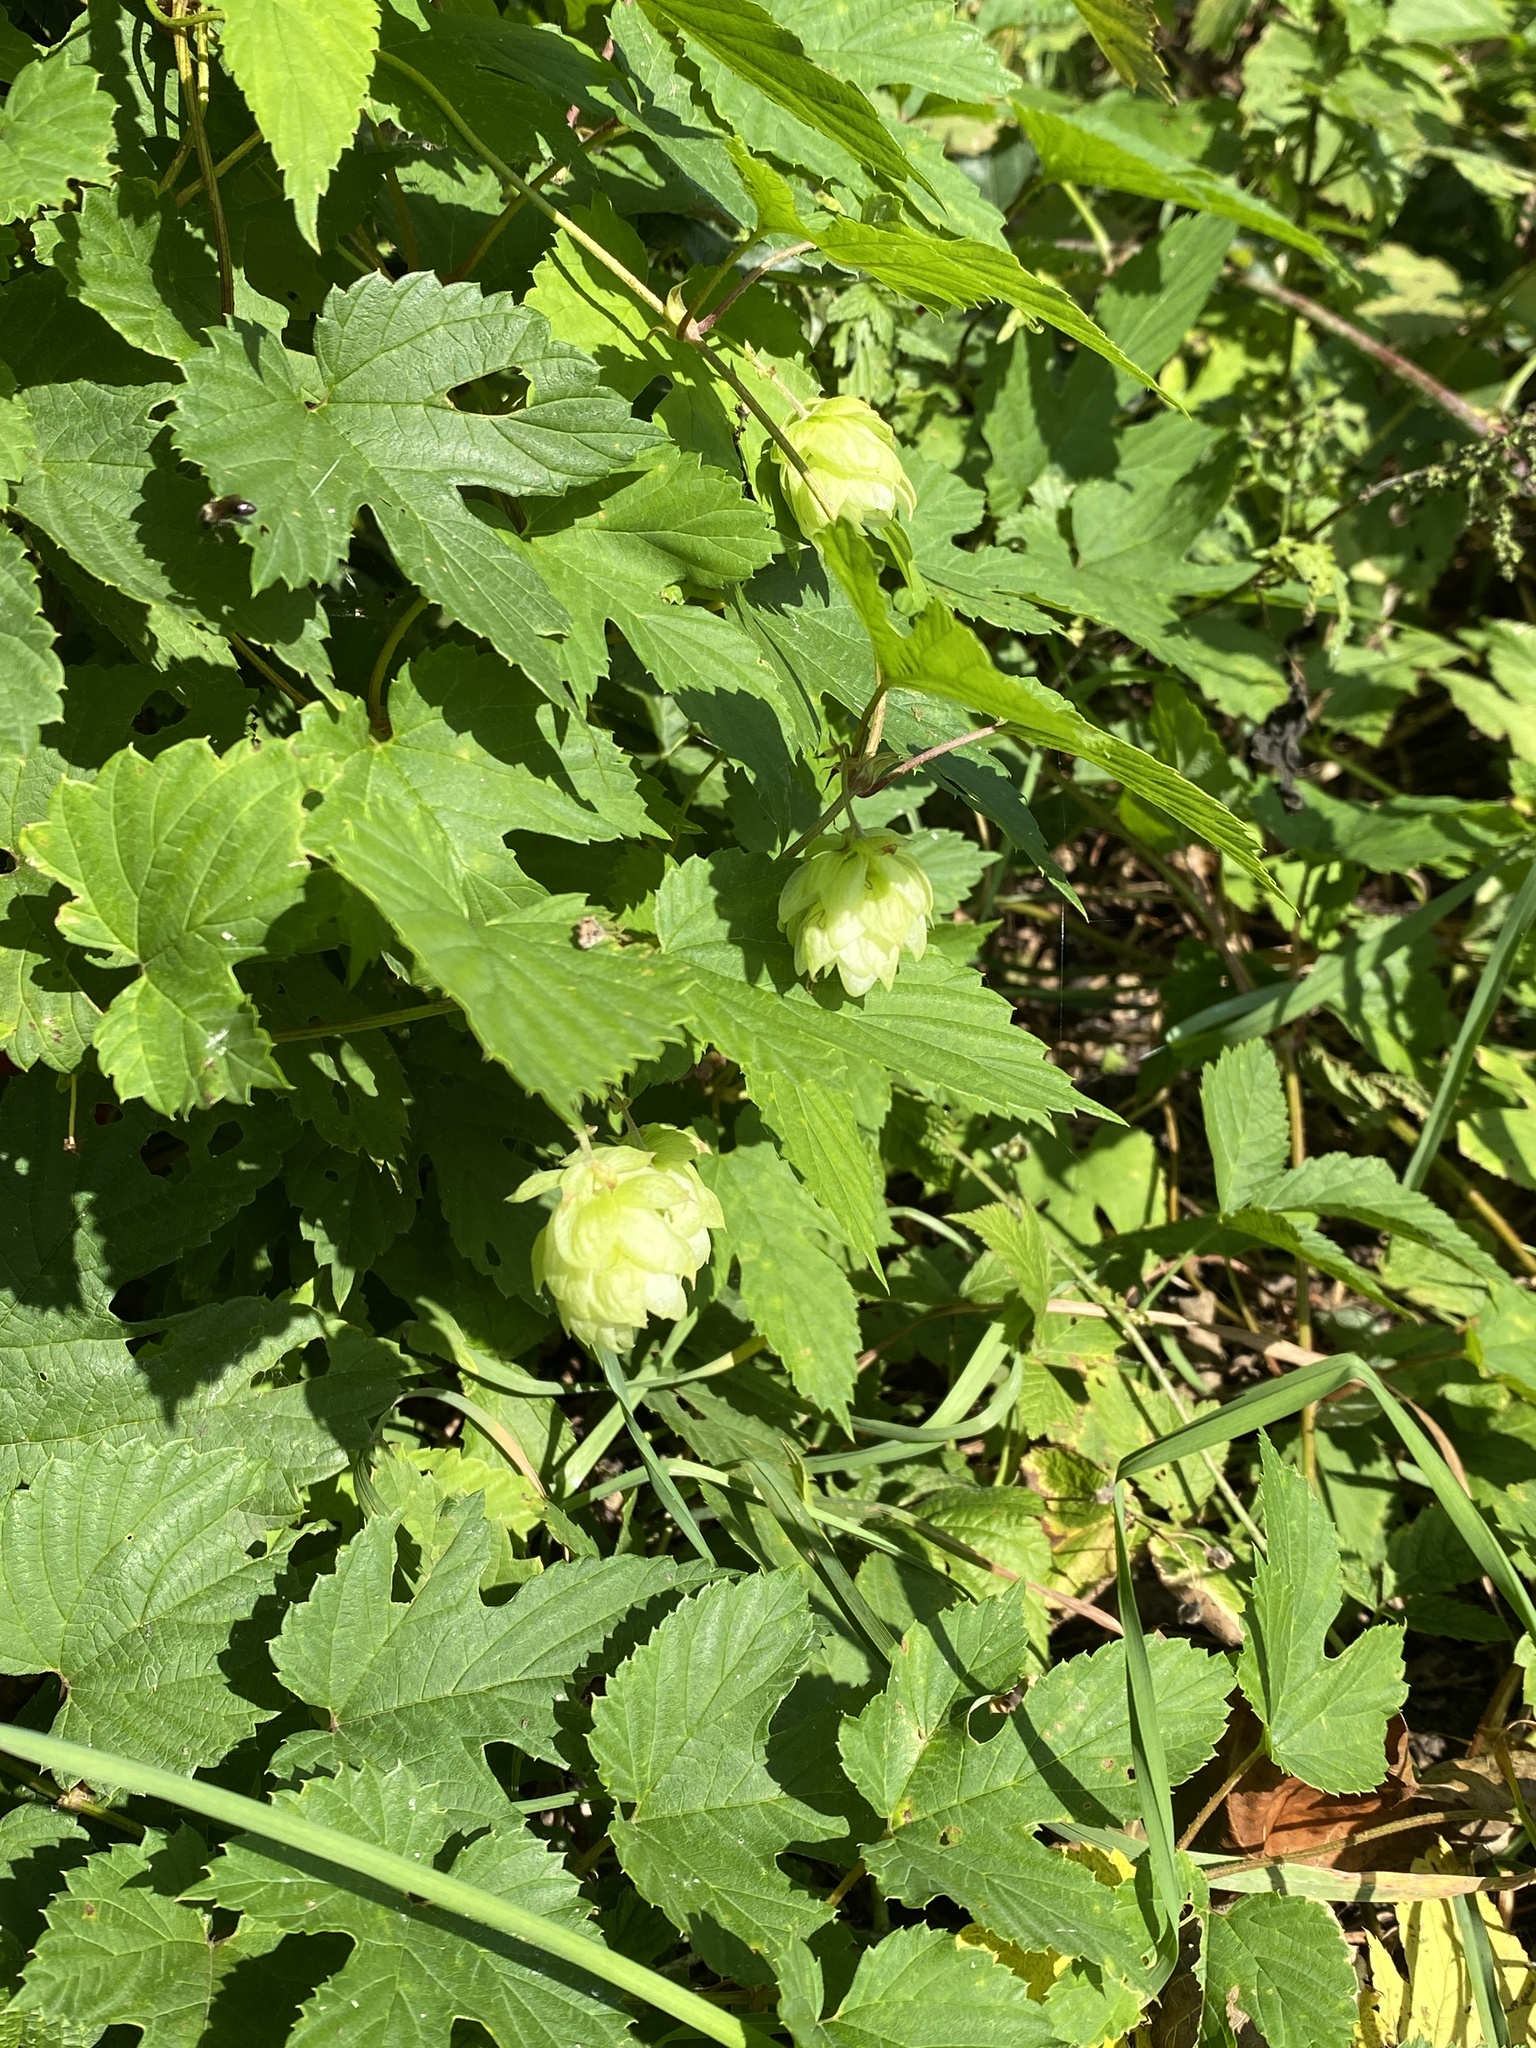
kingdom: Plantae
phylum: Tracheophyta
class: Magnoliopsida
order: Rosales
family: Cannabaceae
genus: Humulus
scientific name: Humulus lupulus
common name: Hop
